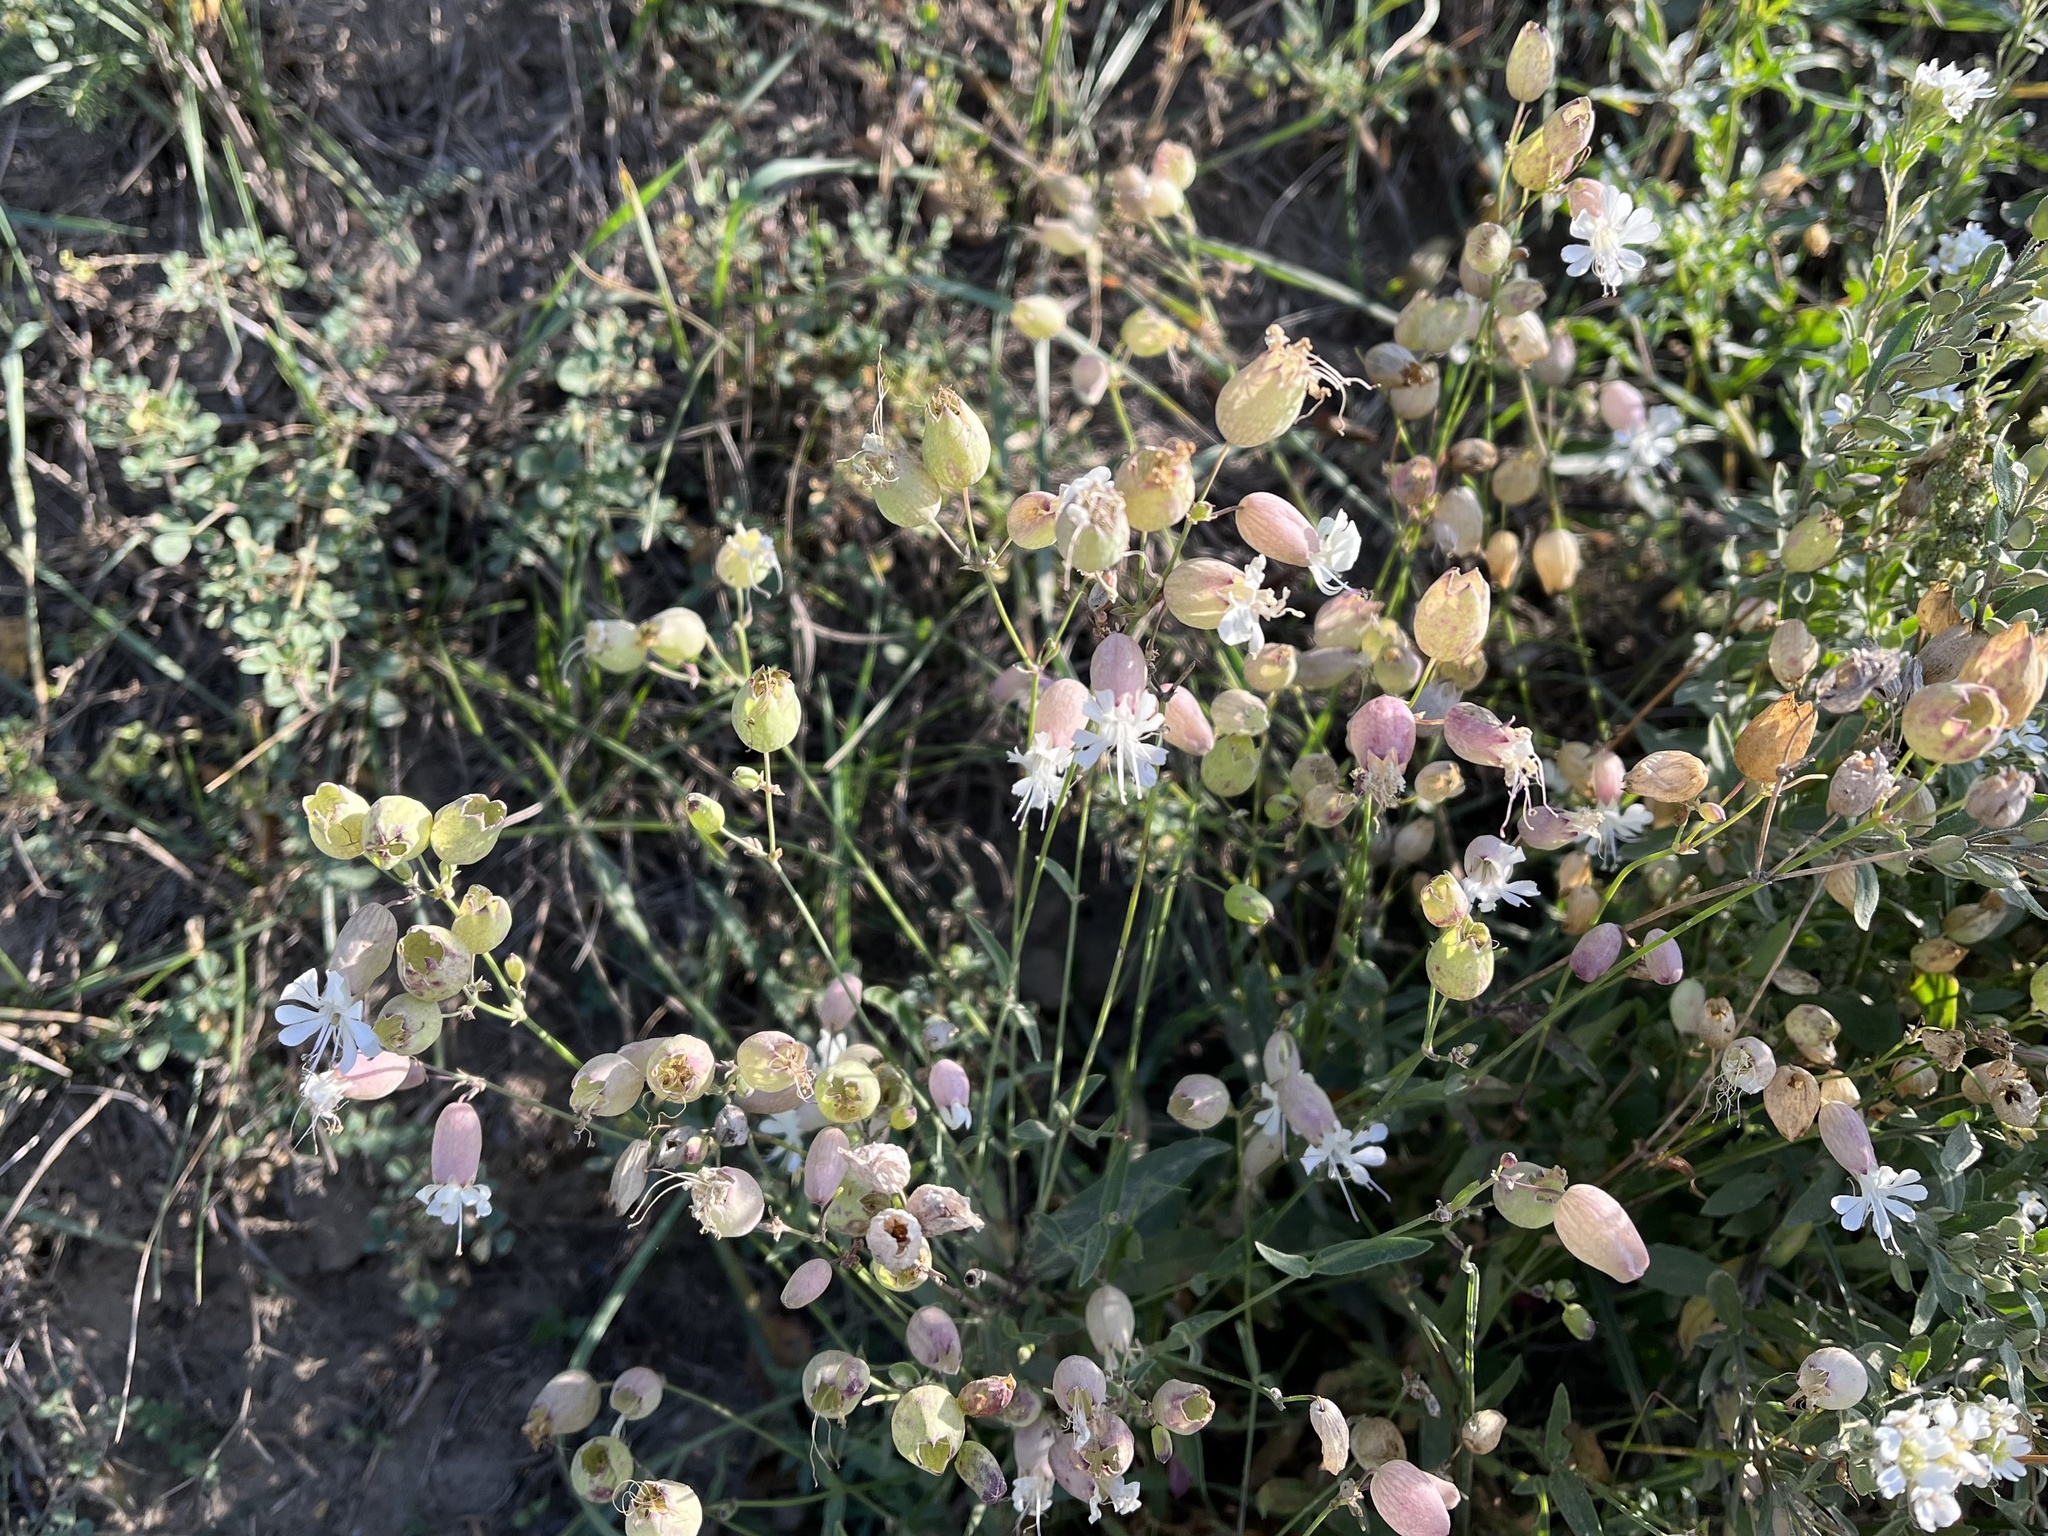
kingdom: Plantae
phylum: Tracheophyta
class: Magnoliopsida
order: Caryophyllales
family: Caryophyllaceae
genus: Silene
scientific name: Silene vulgaris
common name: Bladder campion
